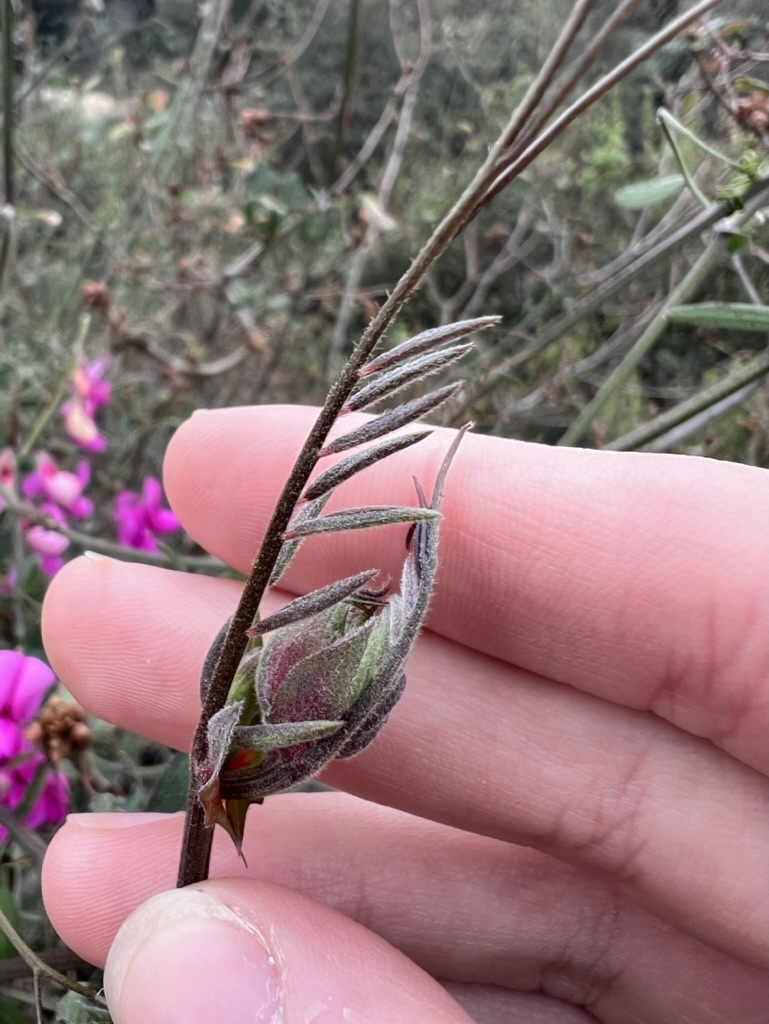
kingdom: Plantae
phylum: Tracheophyta
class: Magnoliopsida
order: Fabales
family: Fabaceae
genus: Lathyrus
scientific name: Lathyrus vestitus
